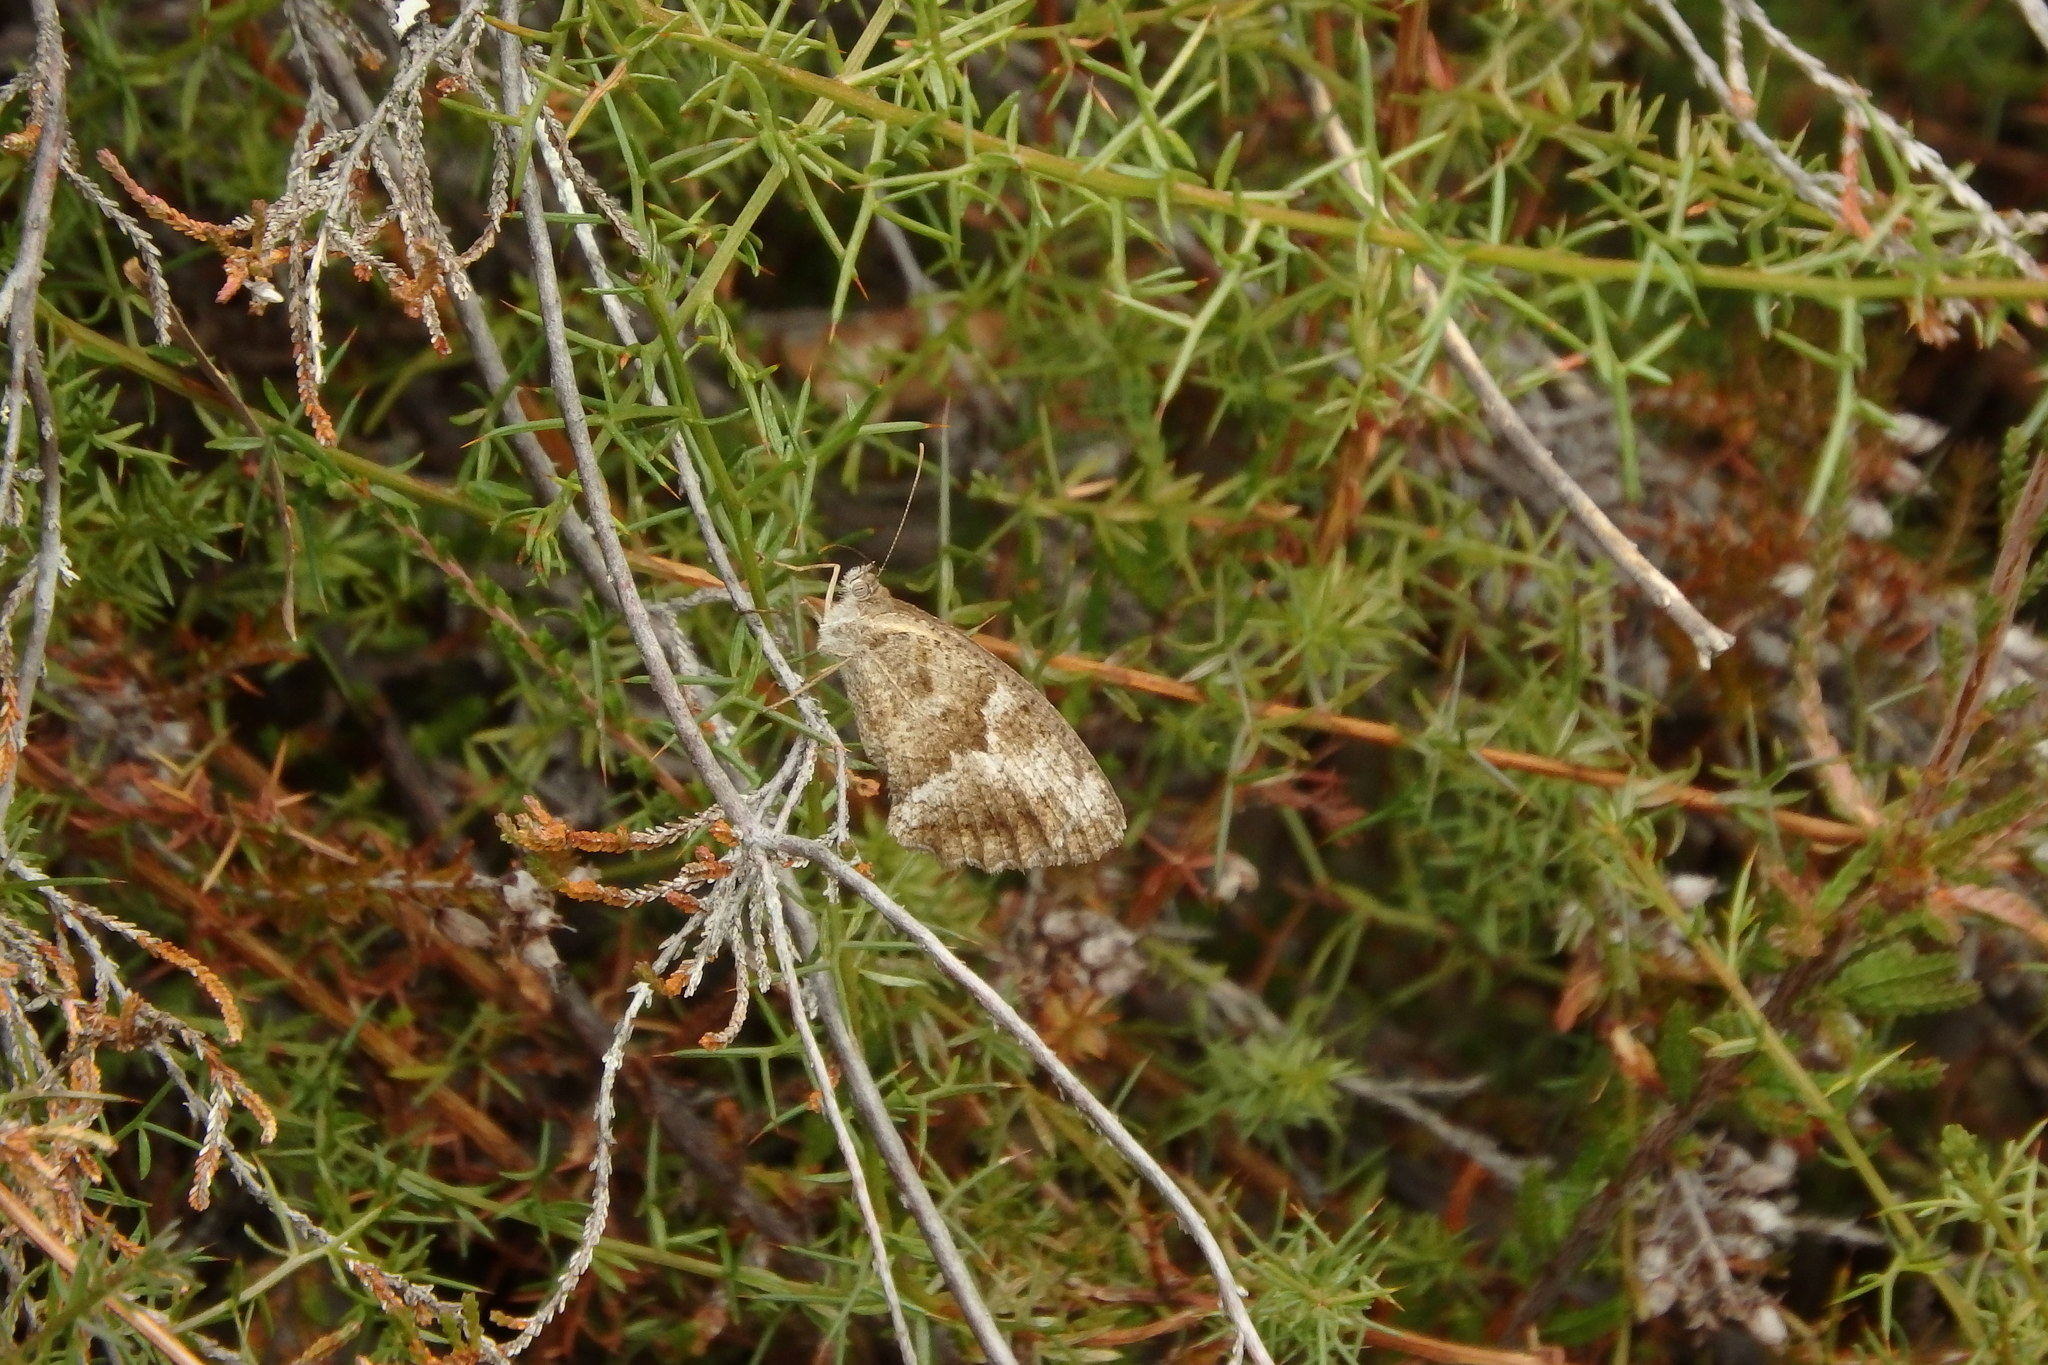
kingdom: Animalia
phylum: Arthropoda
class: Insecta
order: Lepidoptera
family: Nymphalidae
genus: Pyronia
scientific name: Pyronia cecilia
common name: Southern gatekeeper
